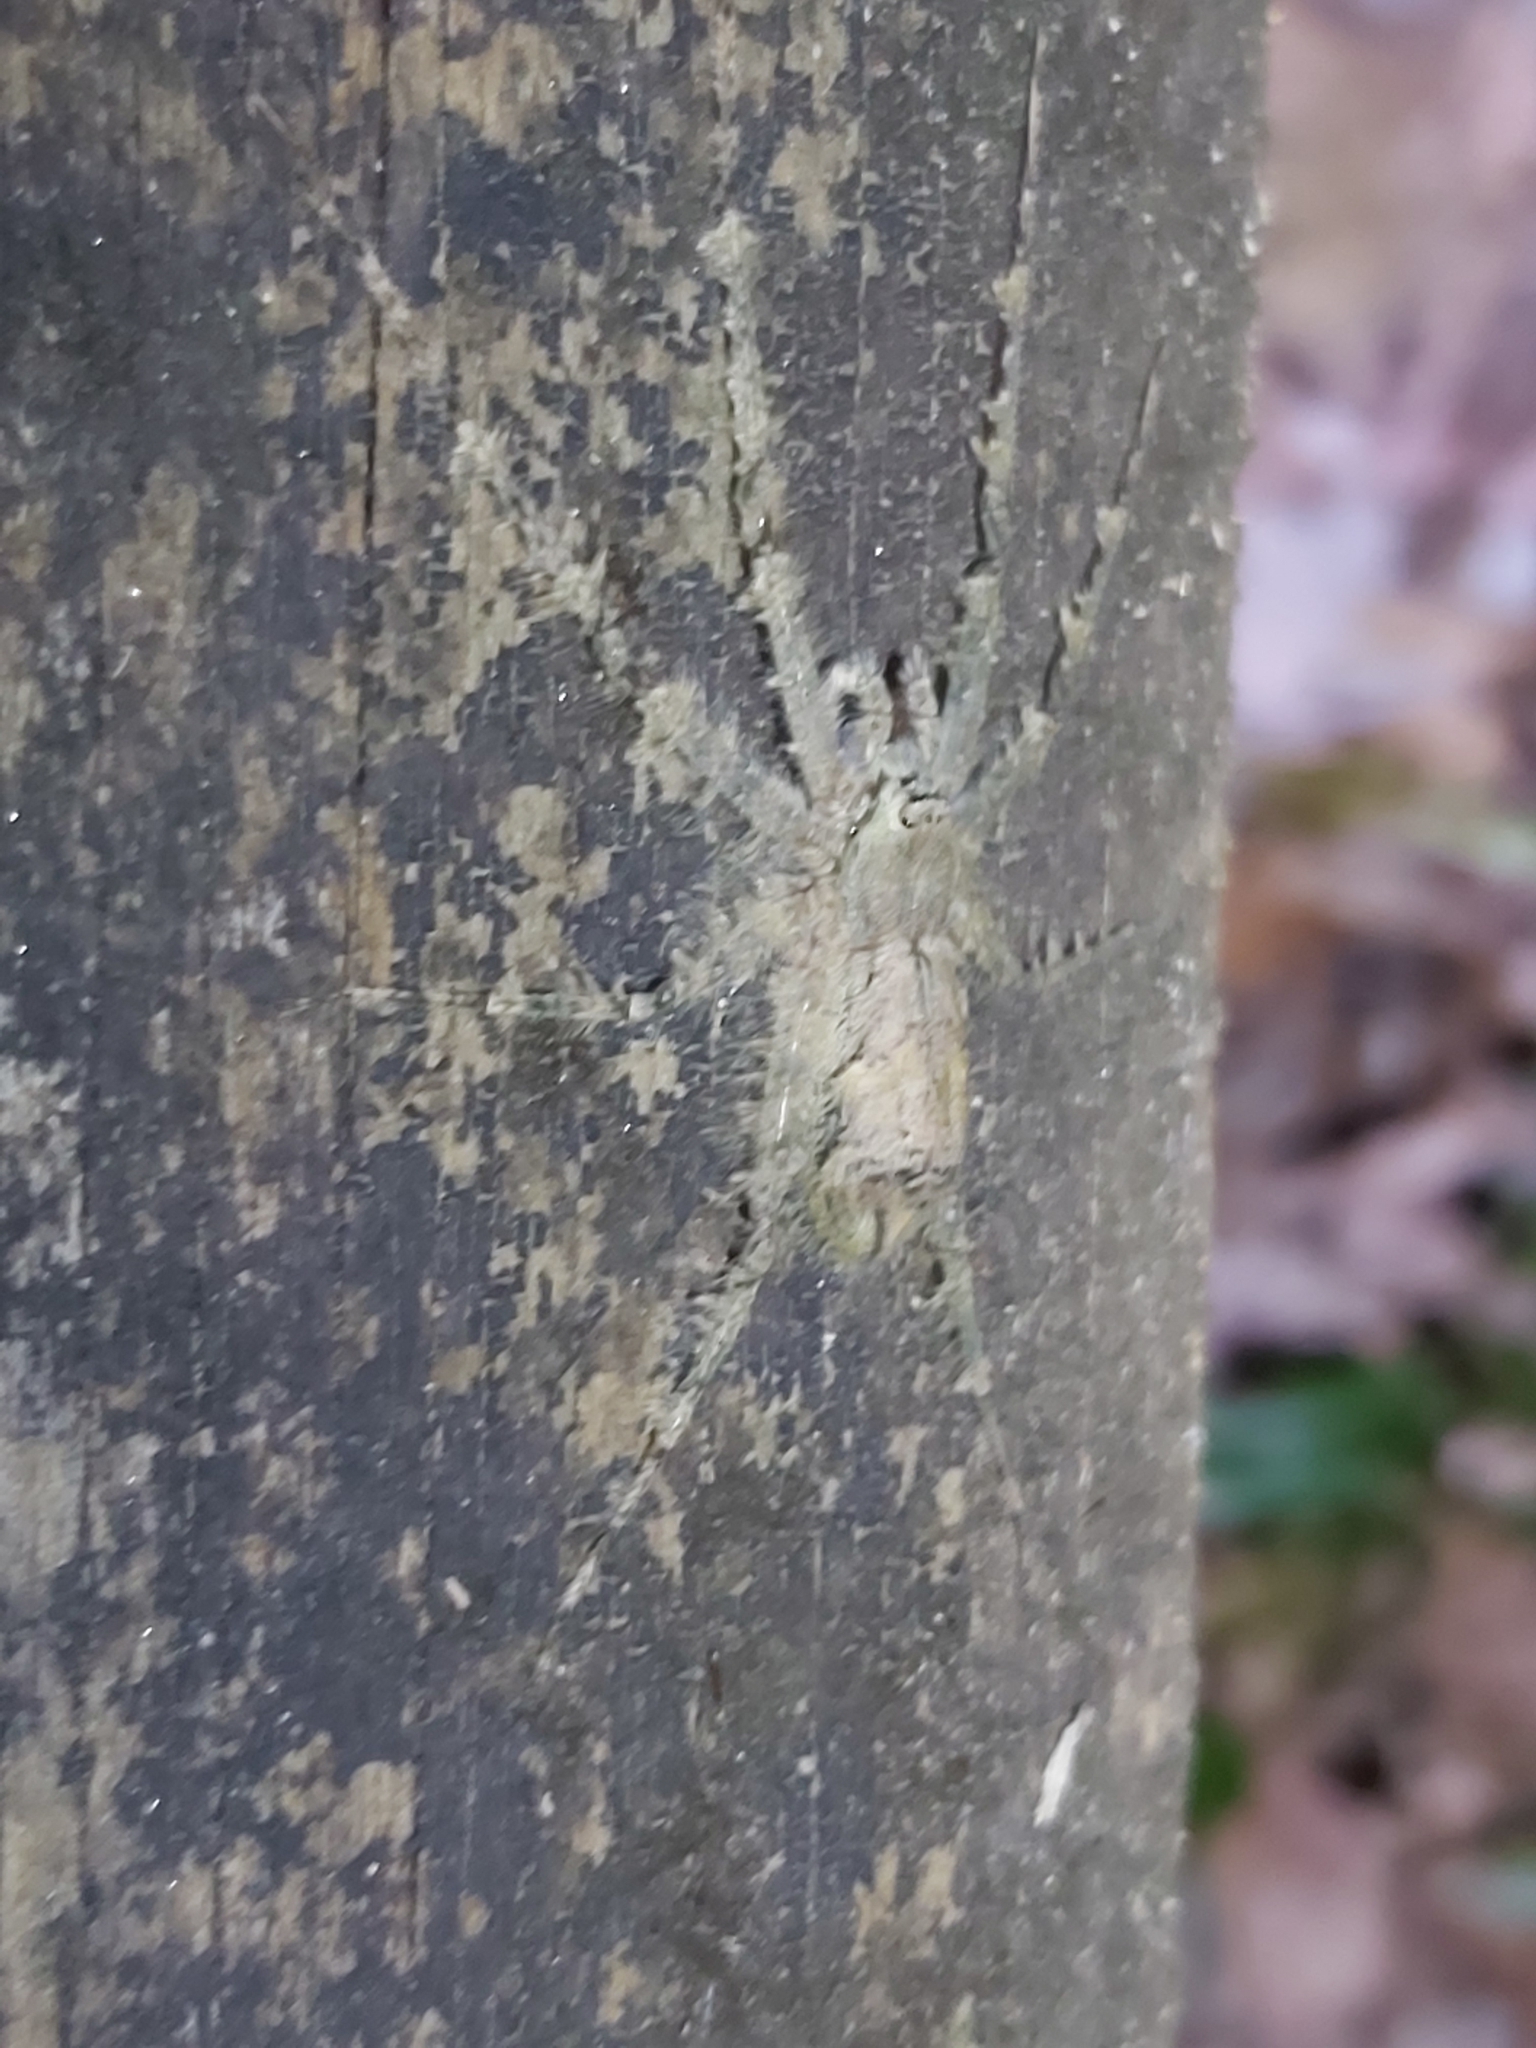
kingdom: Animalia
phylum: Arthropoda
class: Arachnida
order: Araneae
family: Sparassidae
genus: Pandercetes
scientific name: Pandercetes gracilis
